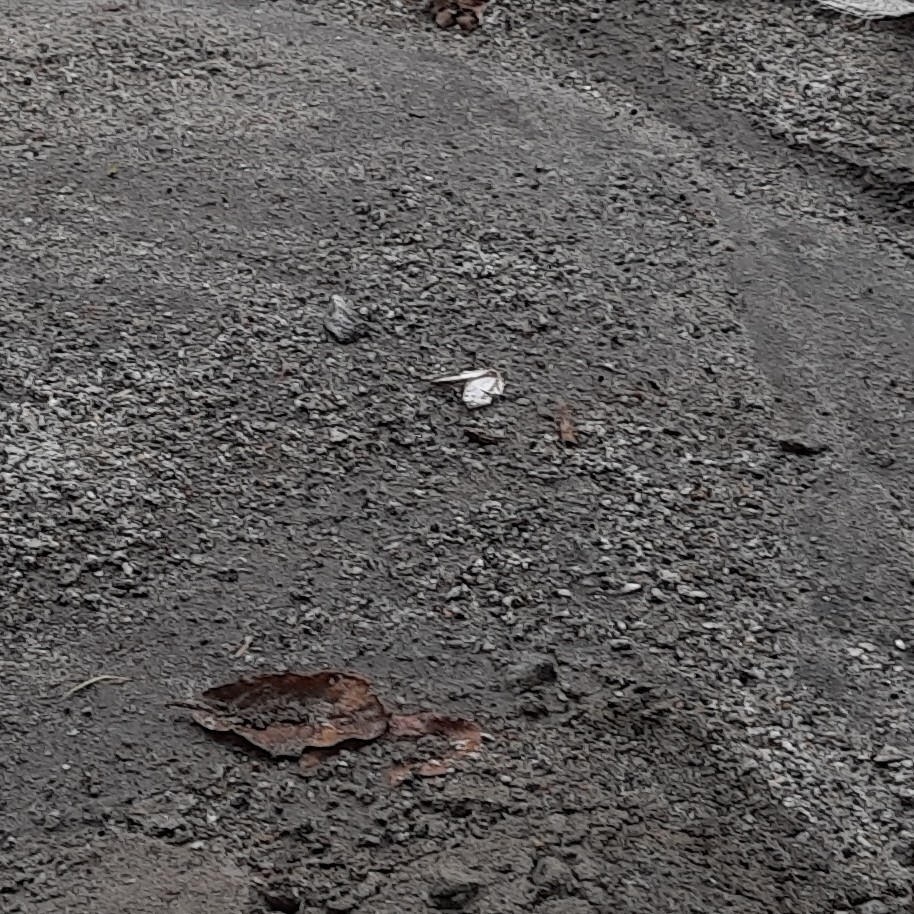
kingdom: Animalia
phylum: Arthropoda
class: Insecta
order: Lepidoptera
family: Nymphalidae
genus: Cyrestis
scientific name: Cyrestis thyodamas
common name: Common mapwing
